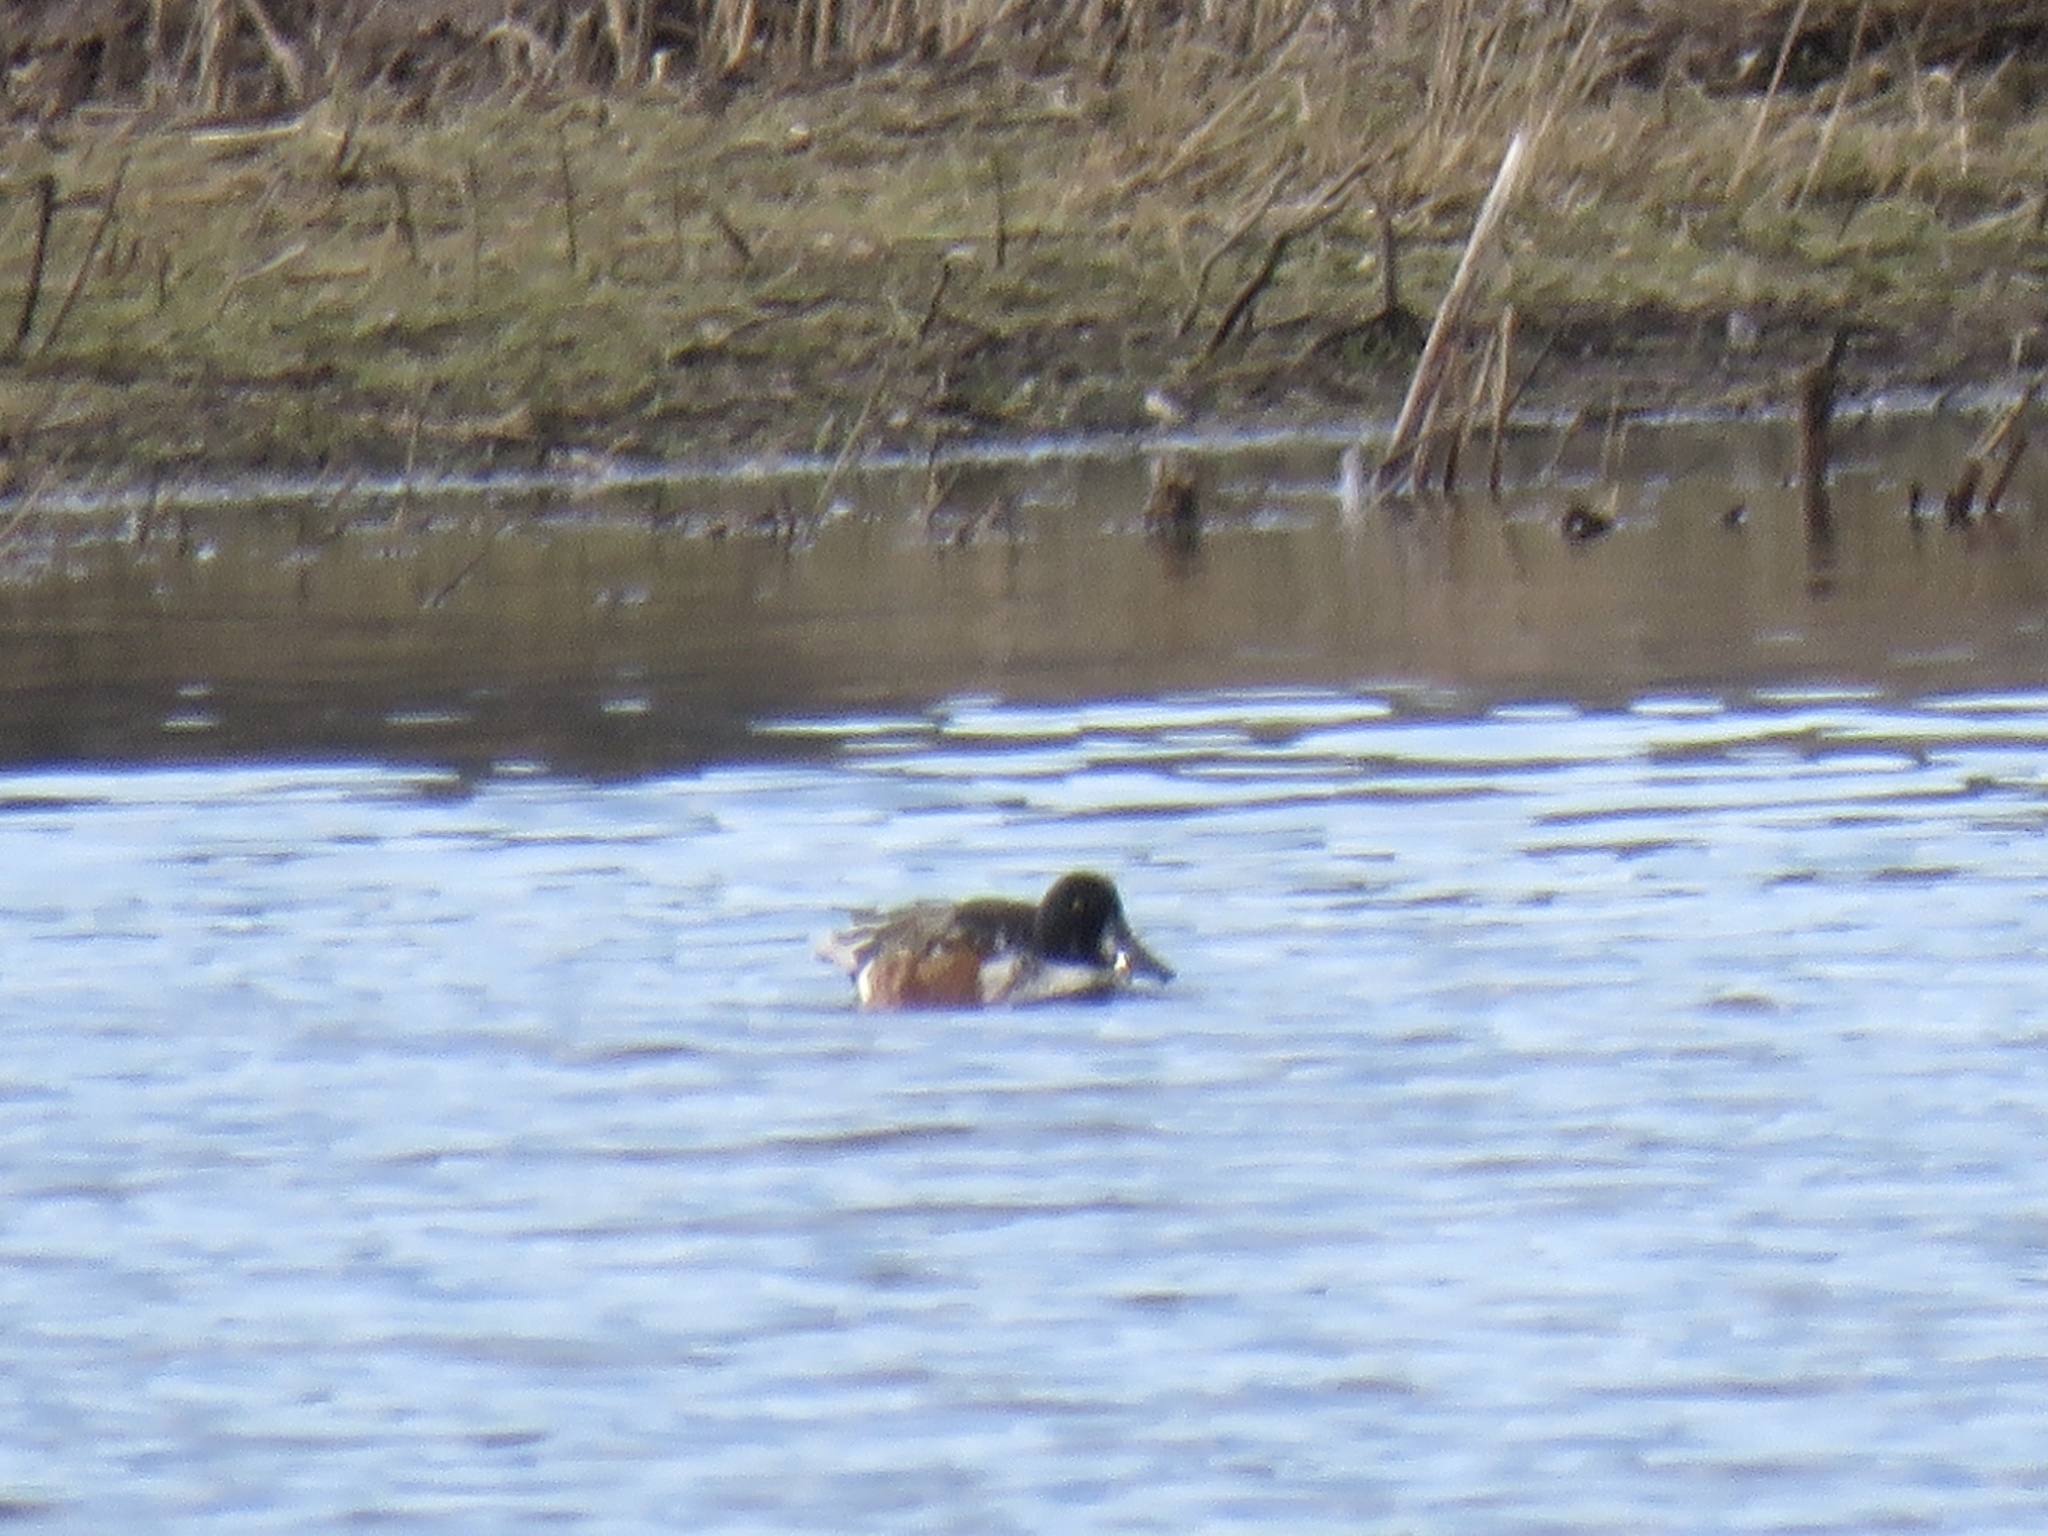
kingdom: Animalia
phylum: Chordata
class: Aves
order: Anseriformes
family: Anatidae
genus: Spatula
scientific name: Spatula clypeata
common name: Northern shoveler
